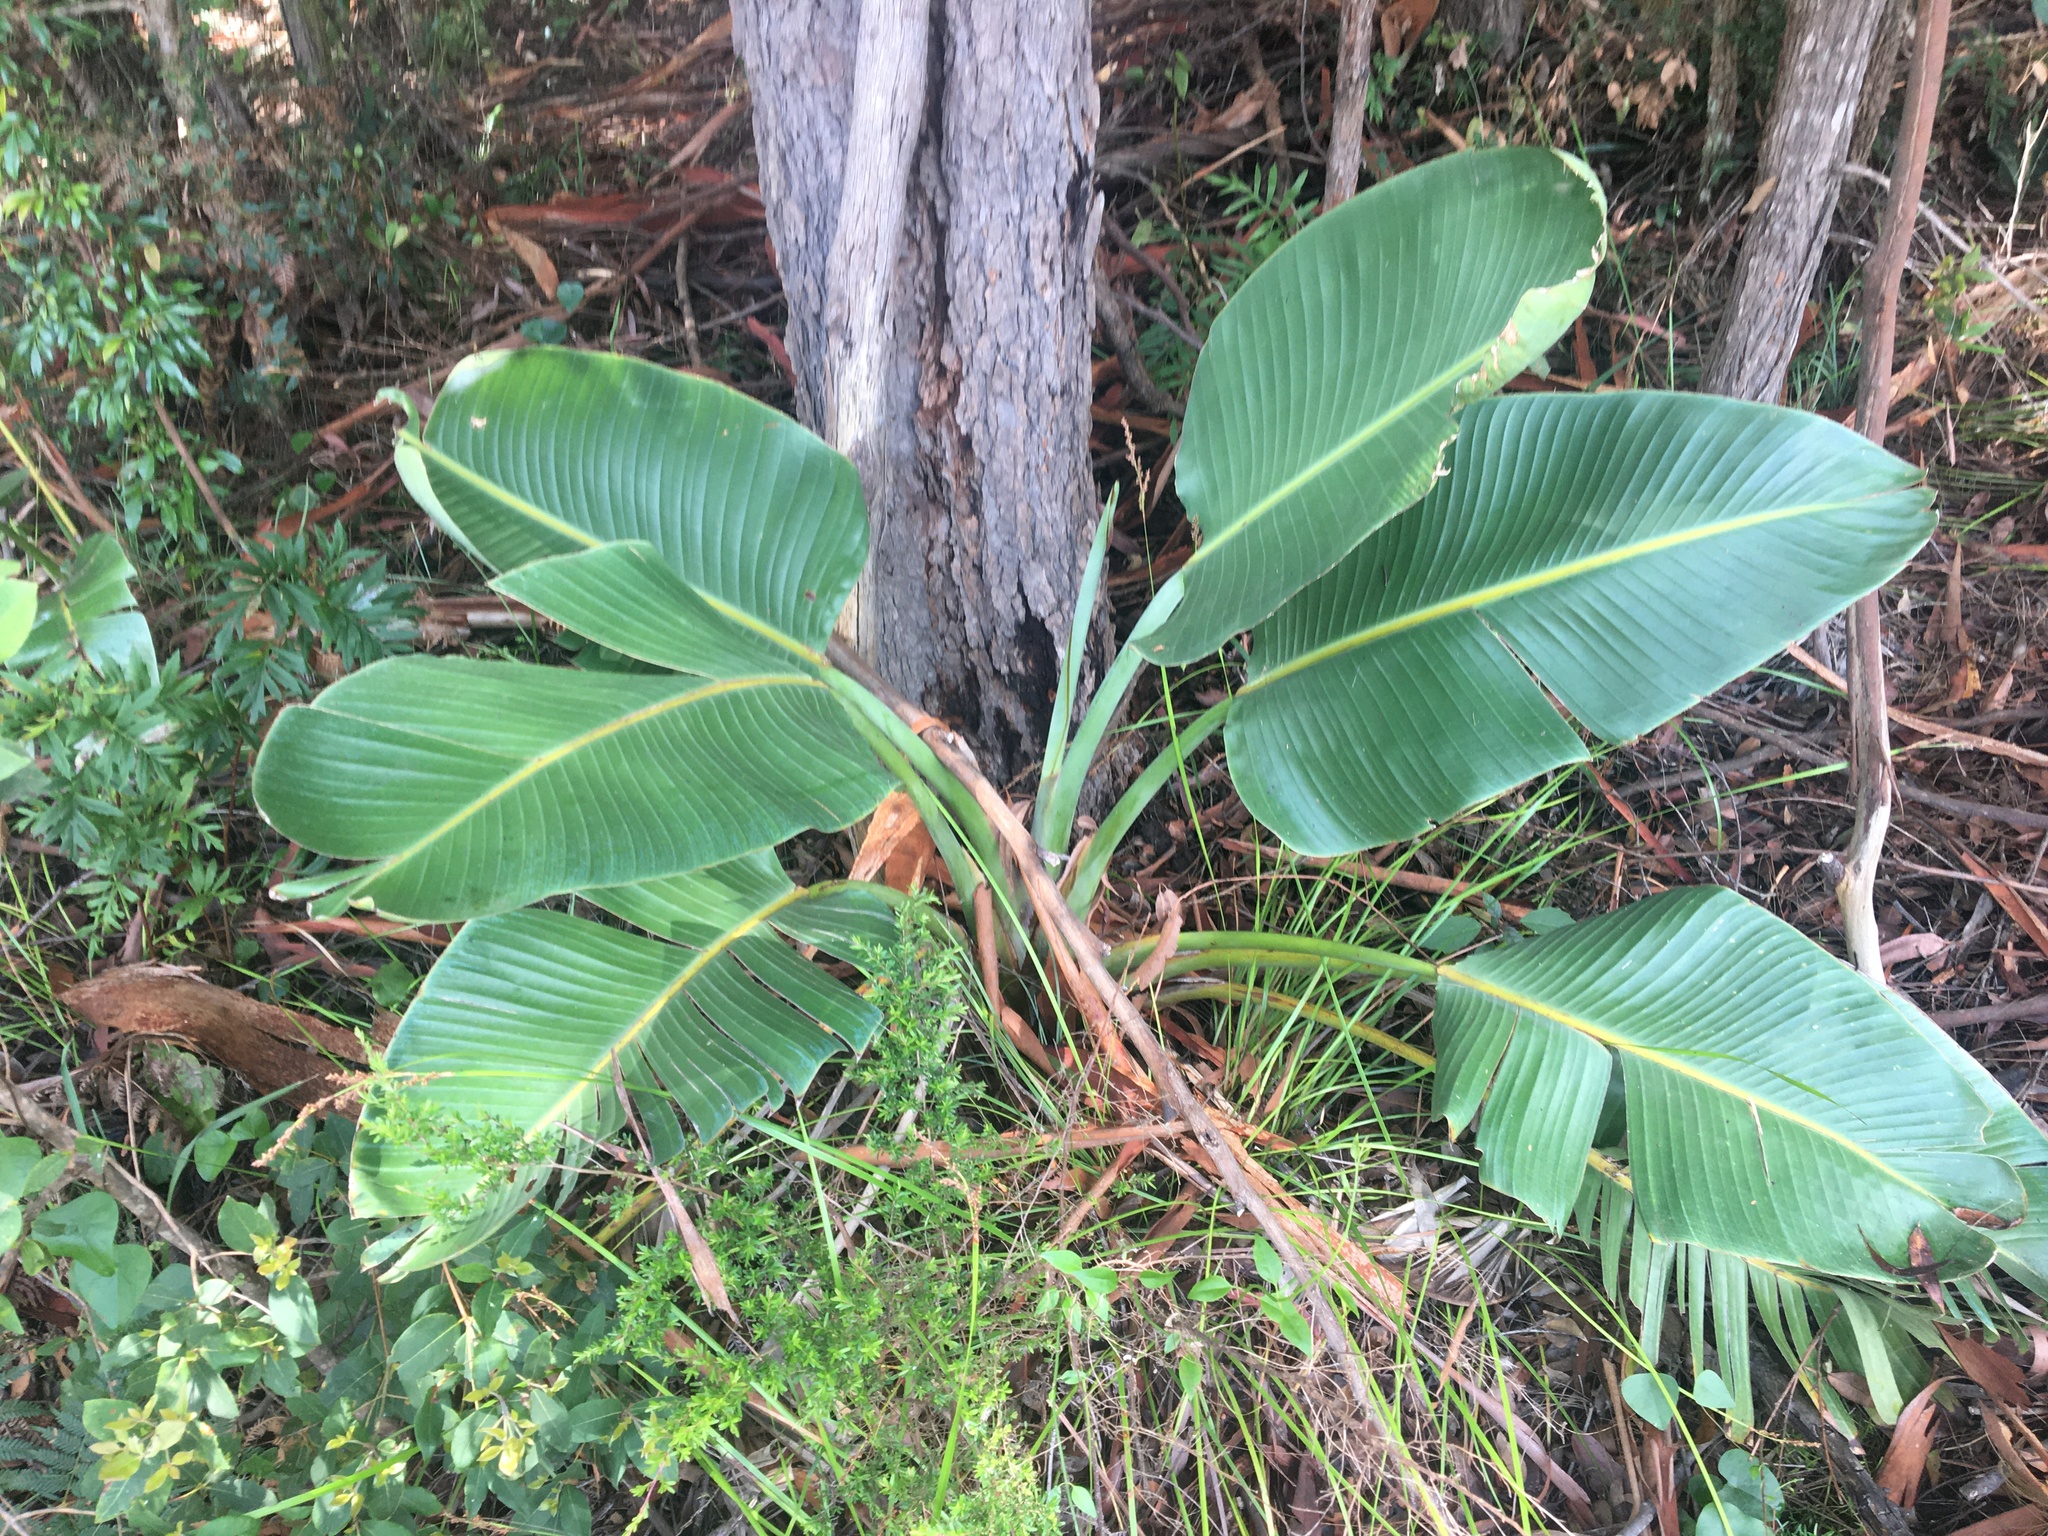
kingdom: Plantae
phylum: Tracheophyta
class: Liliopsida
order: Zingiberales
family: Strelitziaceae
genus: Strelitzia
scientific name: Strelitzia nicolai
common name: Bird-of-paradise tree
